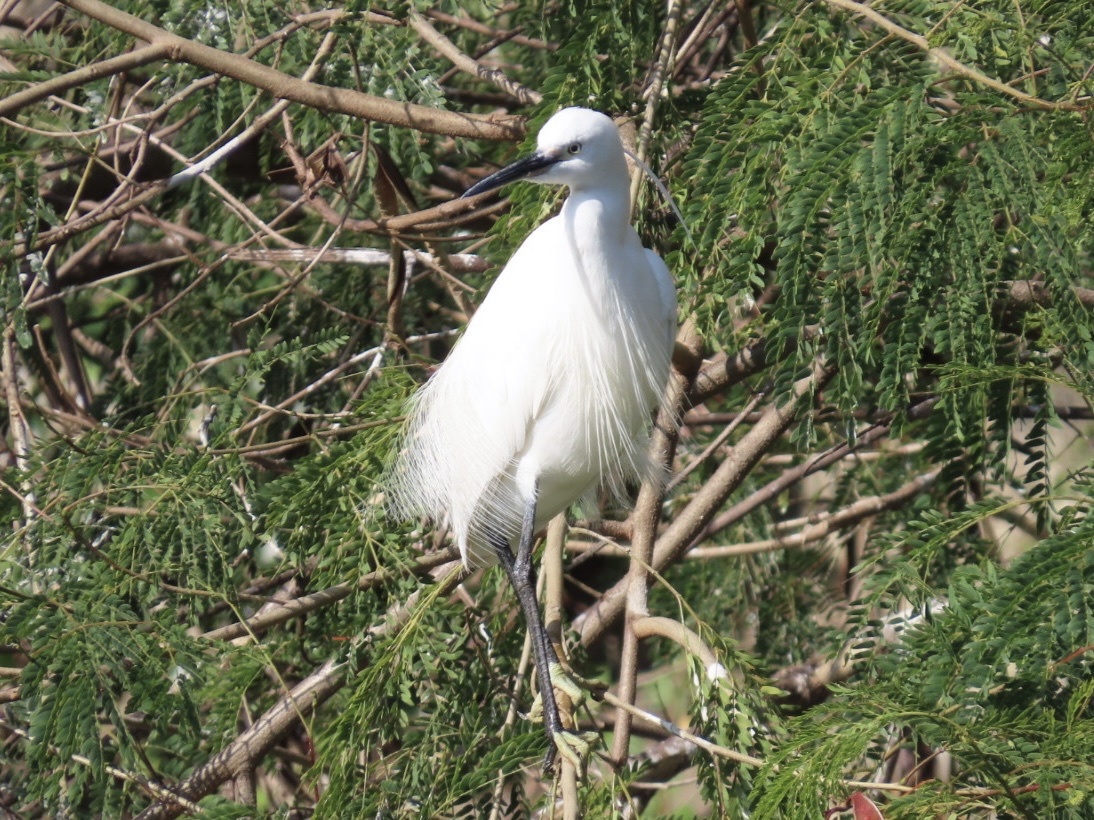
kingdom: Animalia
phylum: Chordata
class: Aves
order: Pelecaniformes
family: Ardeidae
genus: Egretta
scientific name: Egretta garzetta
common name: Little egret
